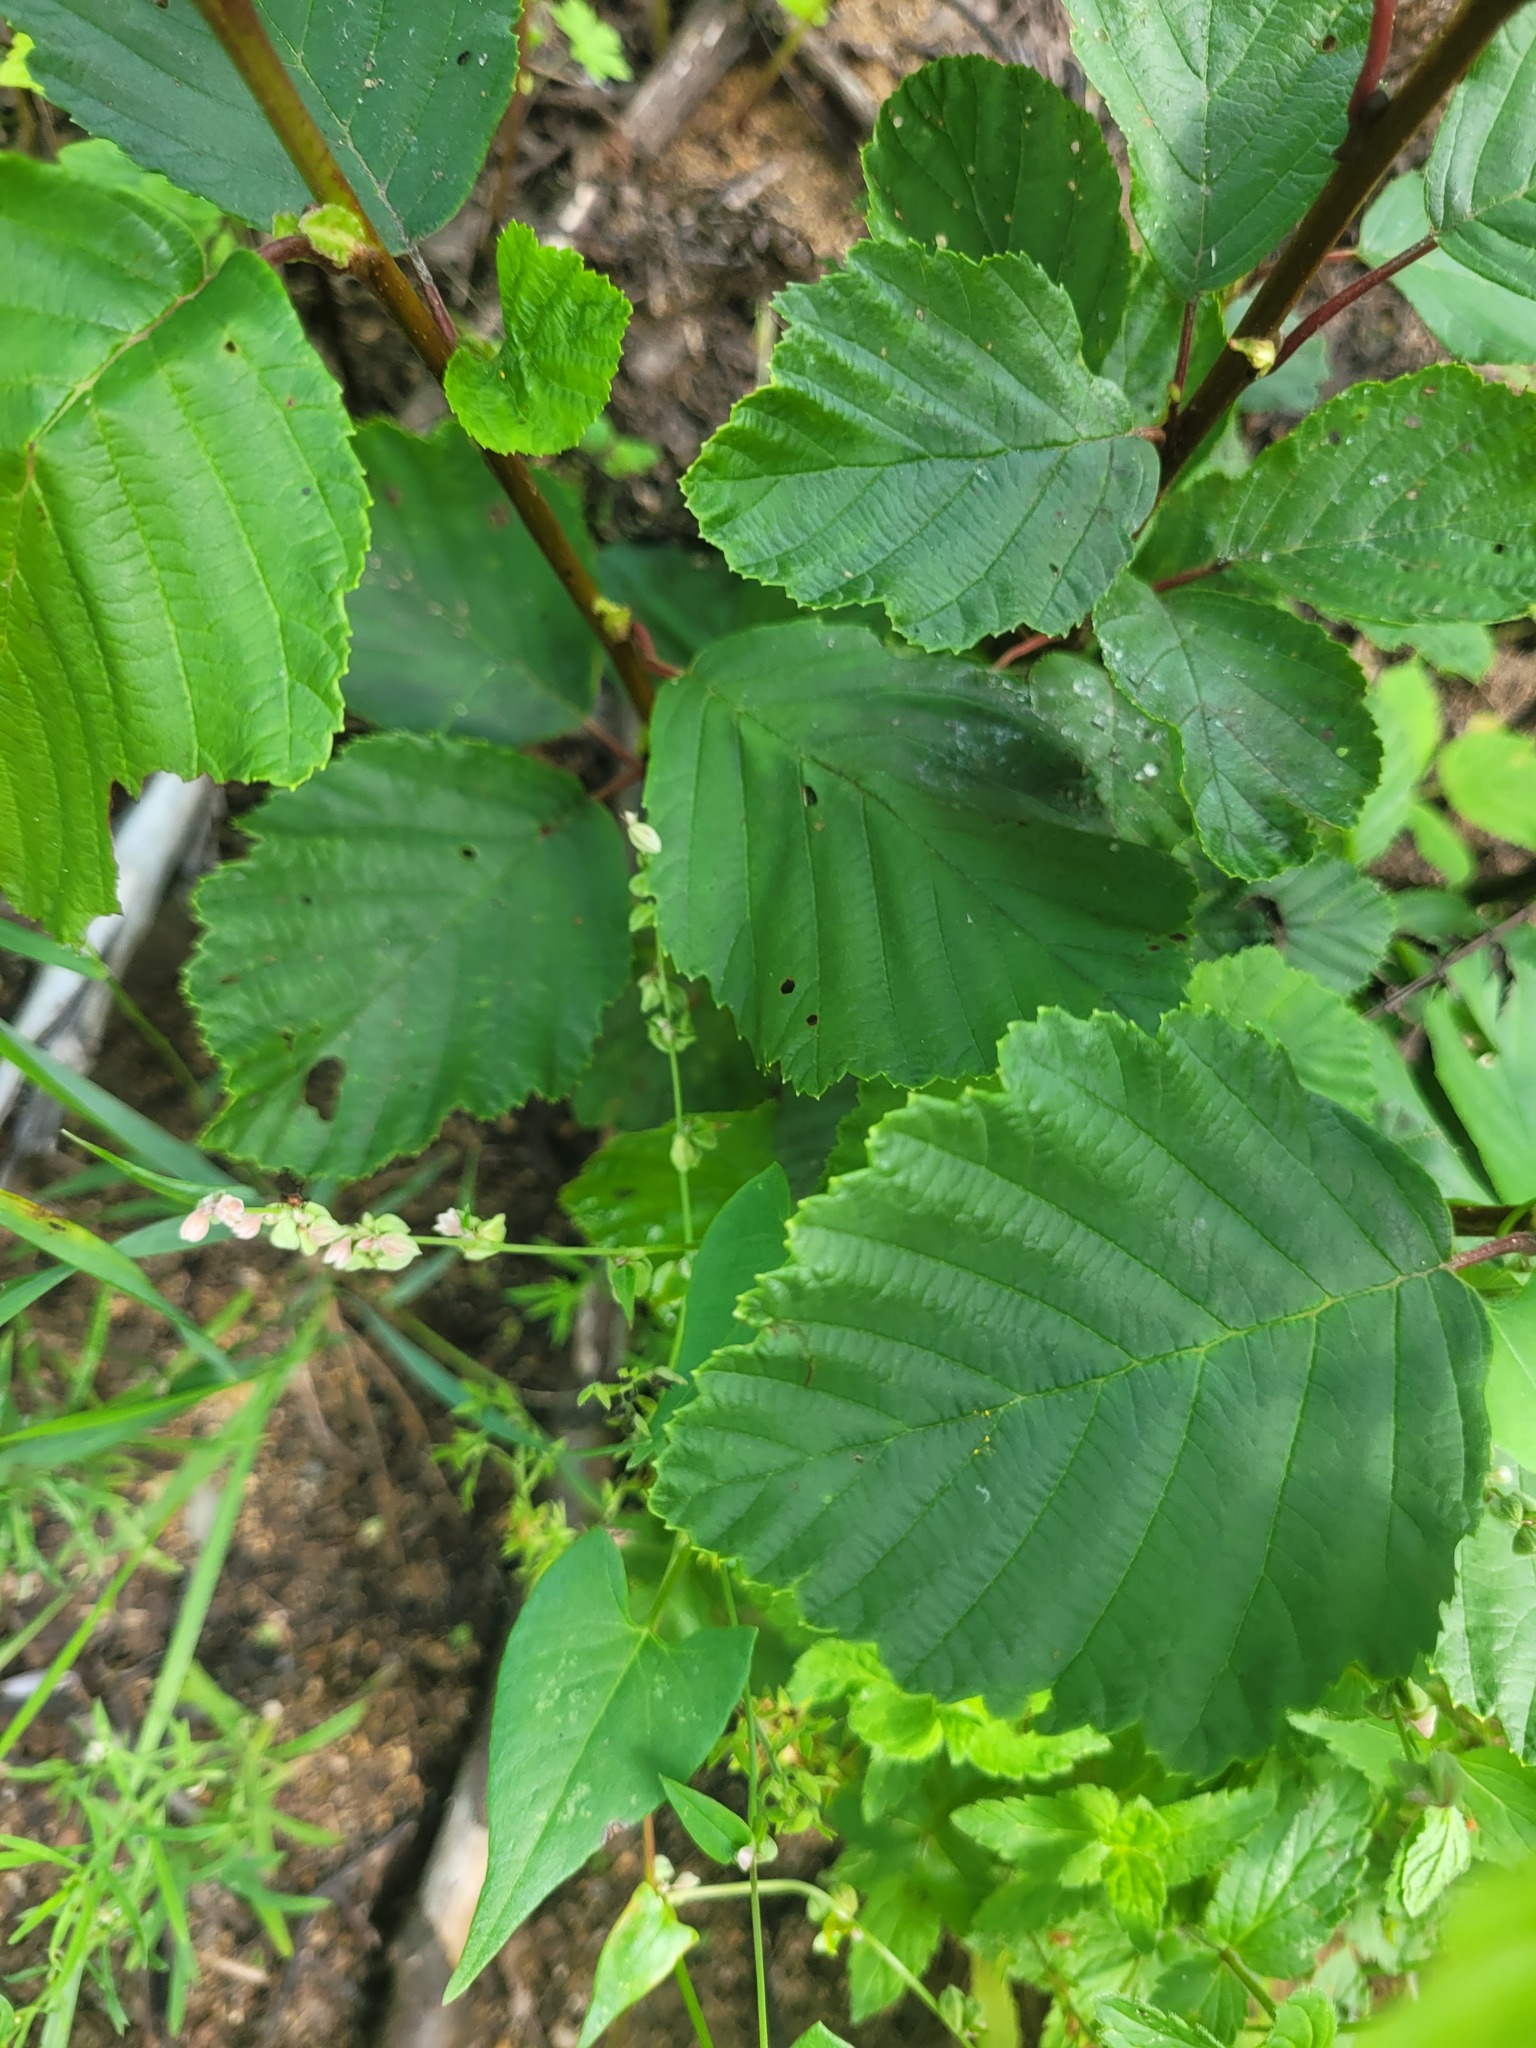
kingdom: Plantae
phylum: Tracheophyta
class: Magnoliopsida
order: Caryophyllales
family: Polygonaceae
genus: Fallopia
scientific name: Fallopia convolvulus
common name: Black bindweed
